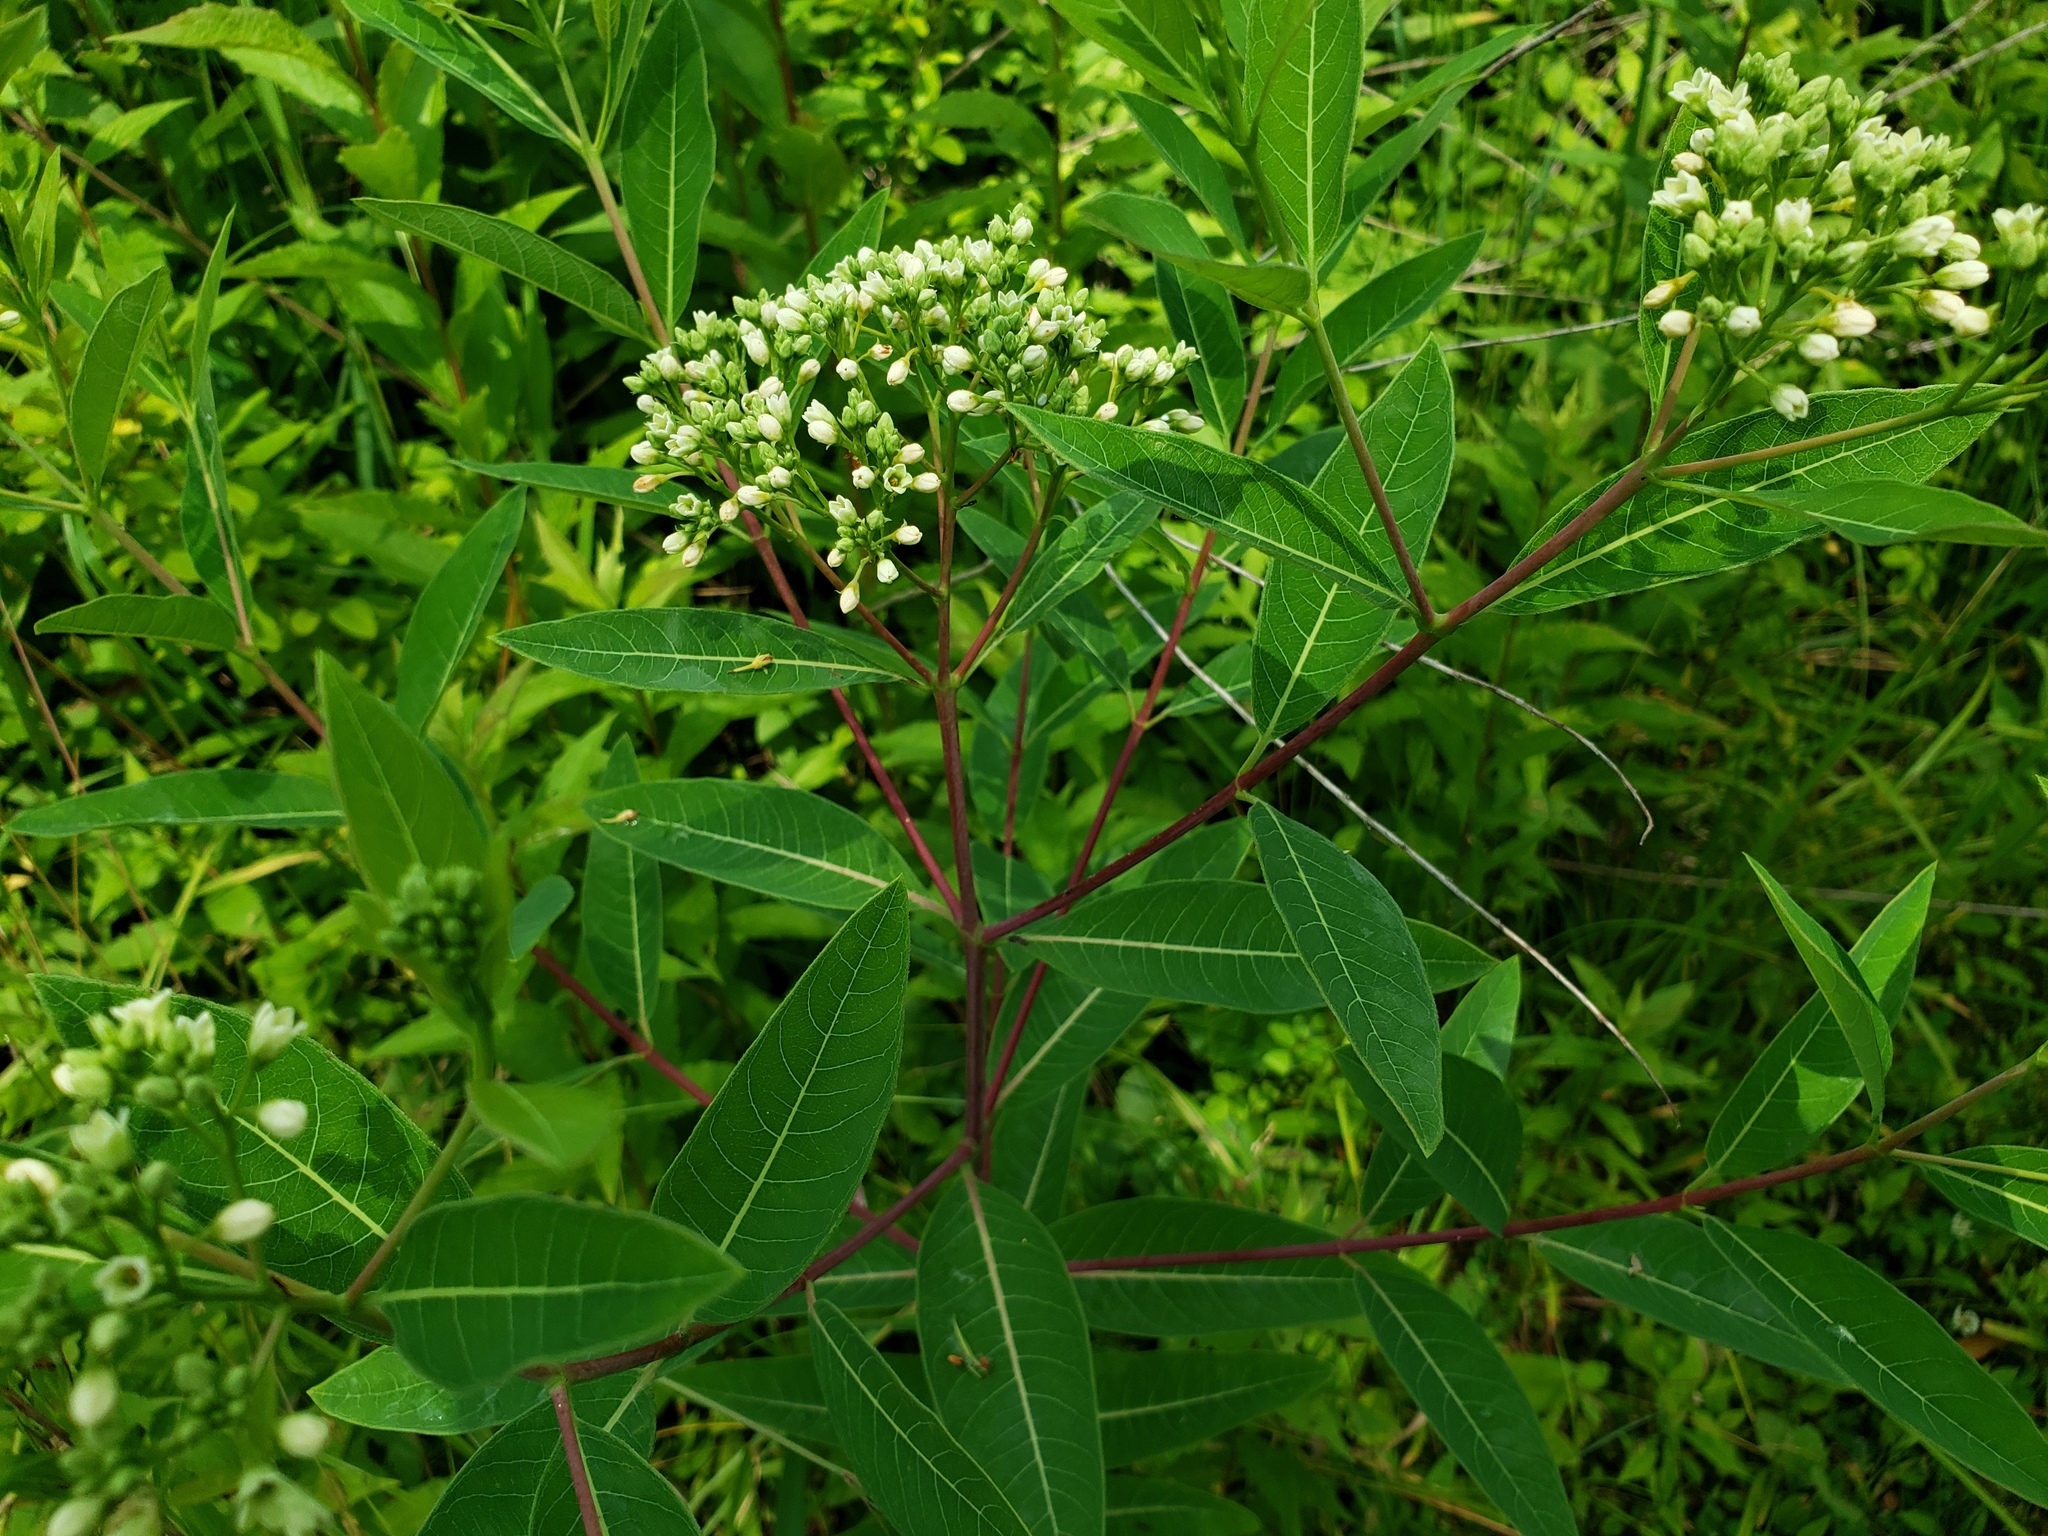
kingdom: Plantae
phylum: Tracheophyta
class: Magnoliopsida
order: Gentianales
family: Apocynaceae
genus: Apocynum
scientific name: Apocynum cannabinum
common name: Hemp dogbane
